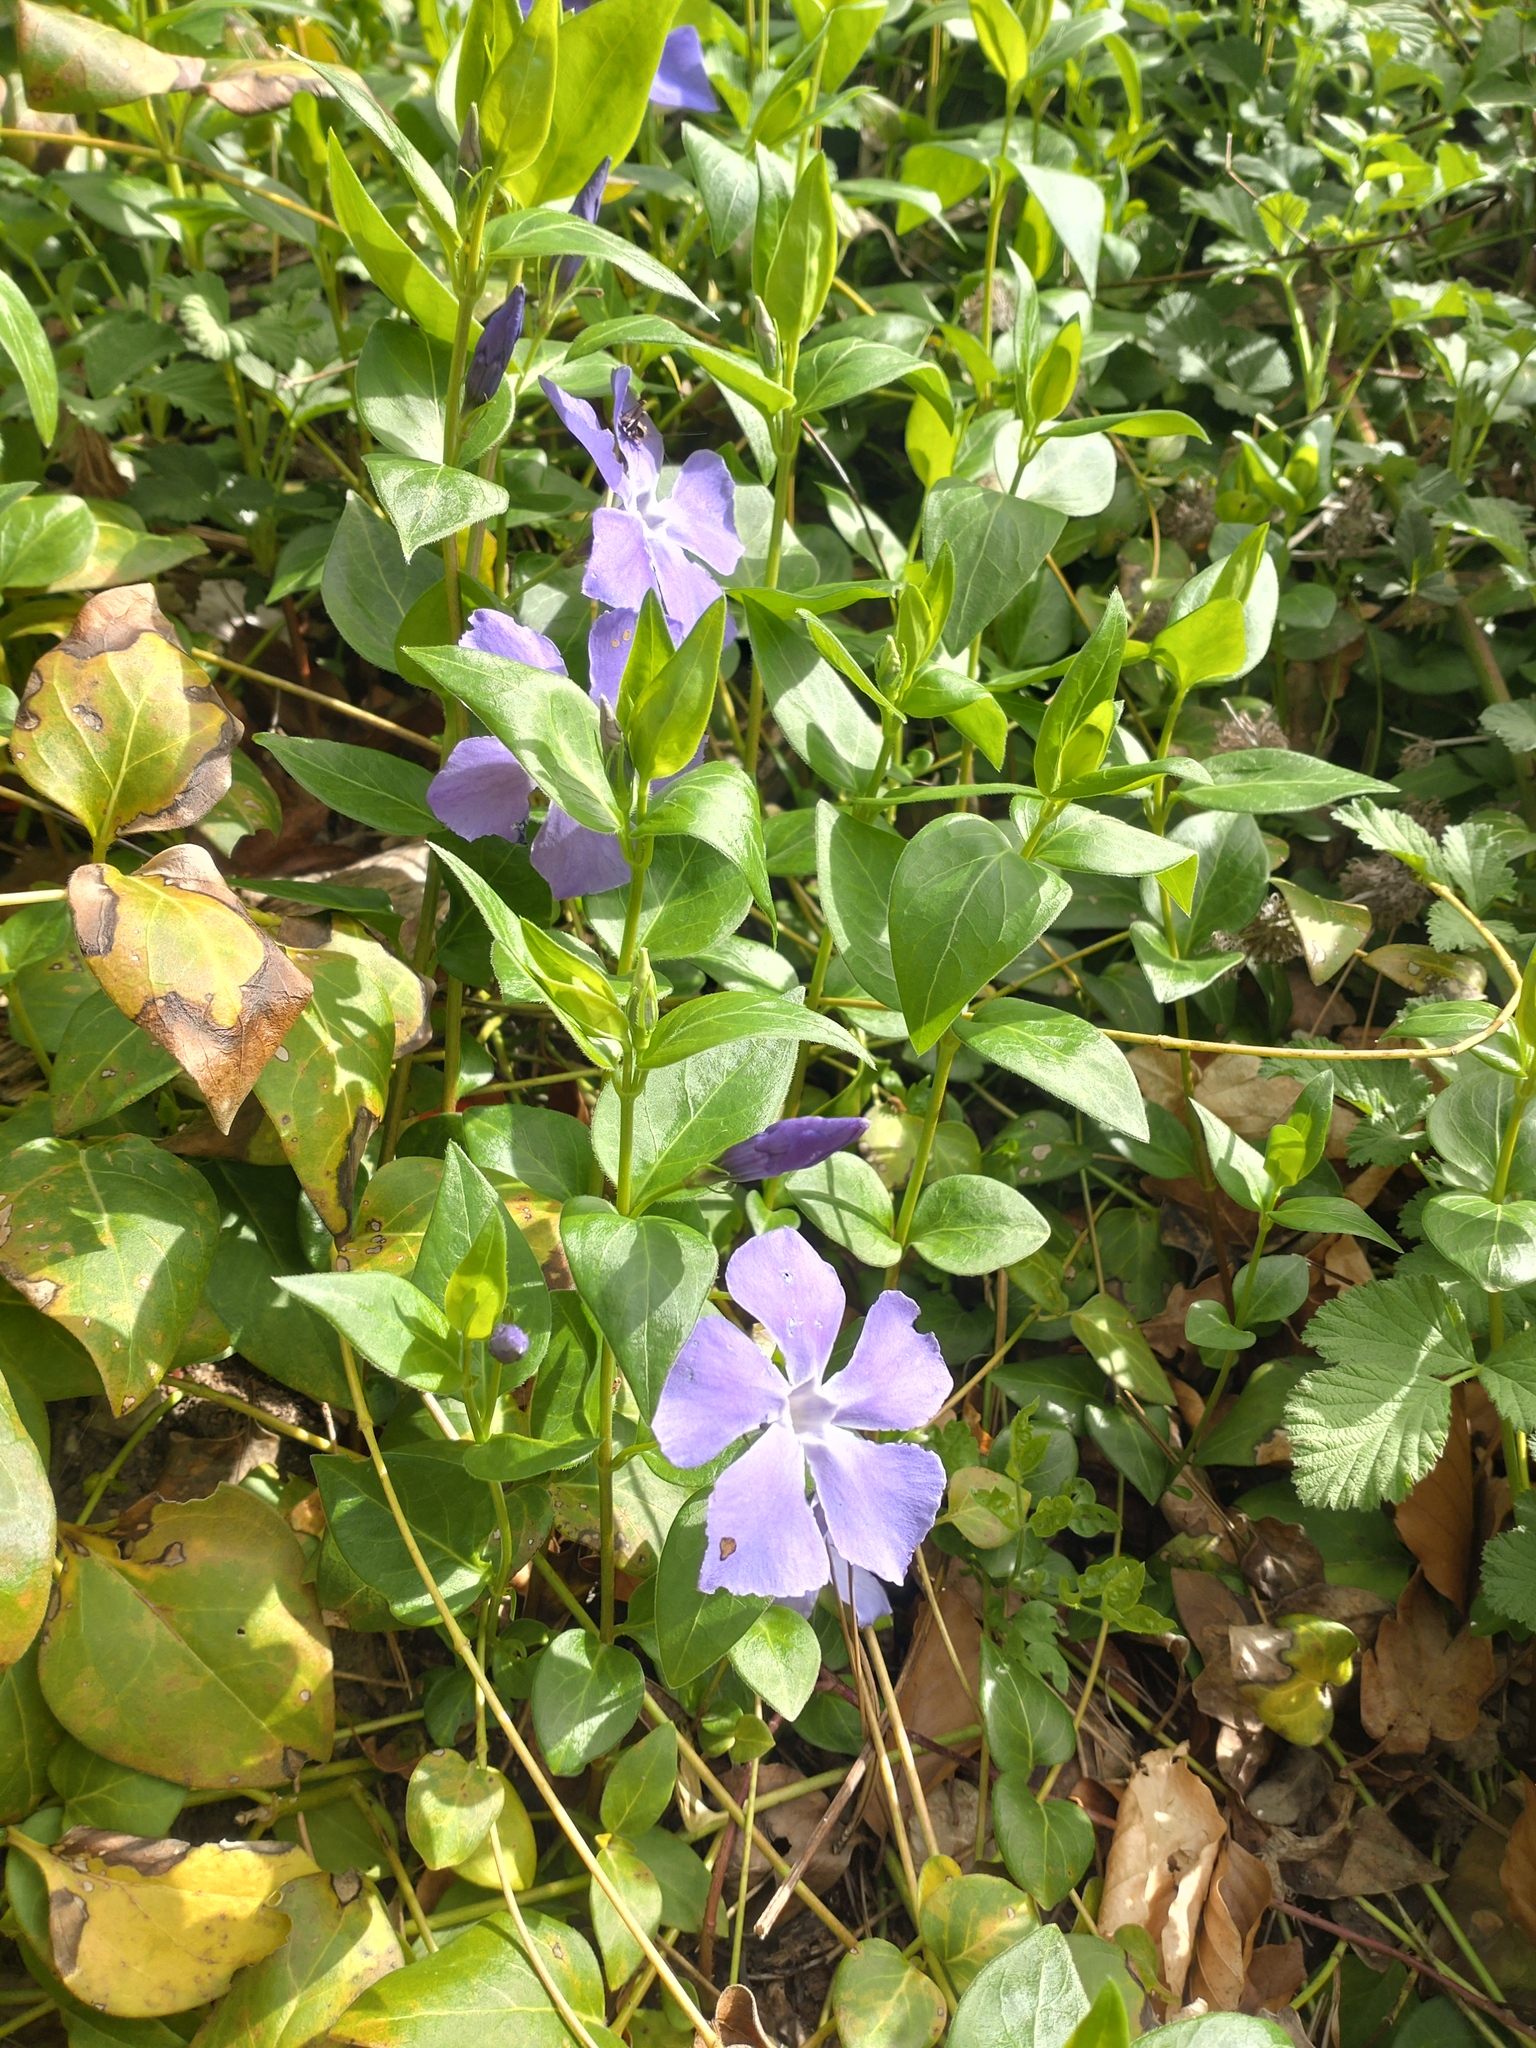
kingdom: Plantae
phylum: Tracheophyta
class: Magnoliopsida
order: Gentianales
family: Apocynaceae
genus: Vinca
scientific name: Vinca major
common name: Greater periwinkle
